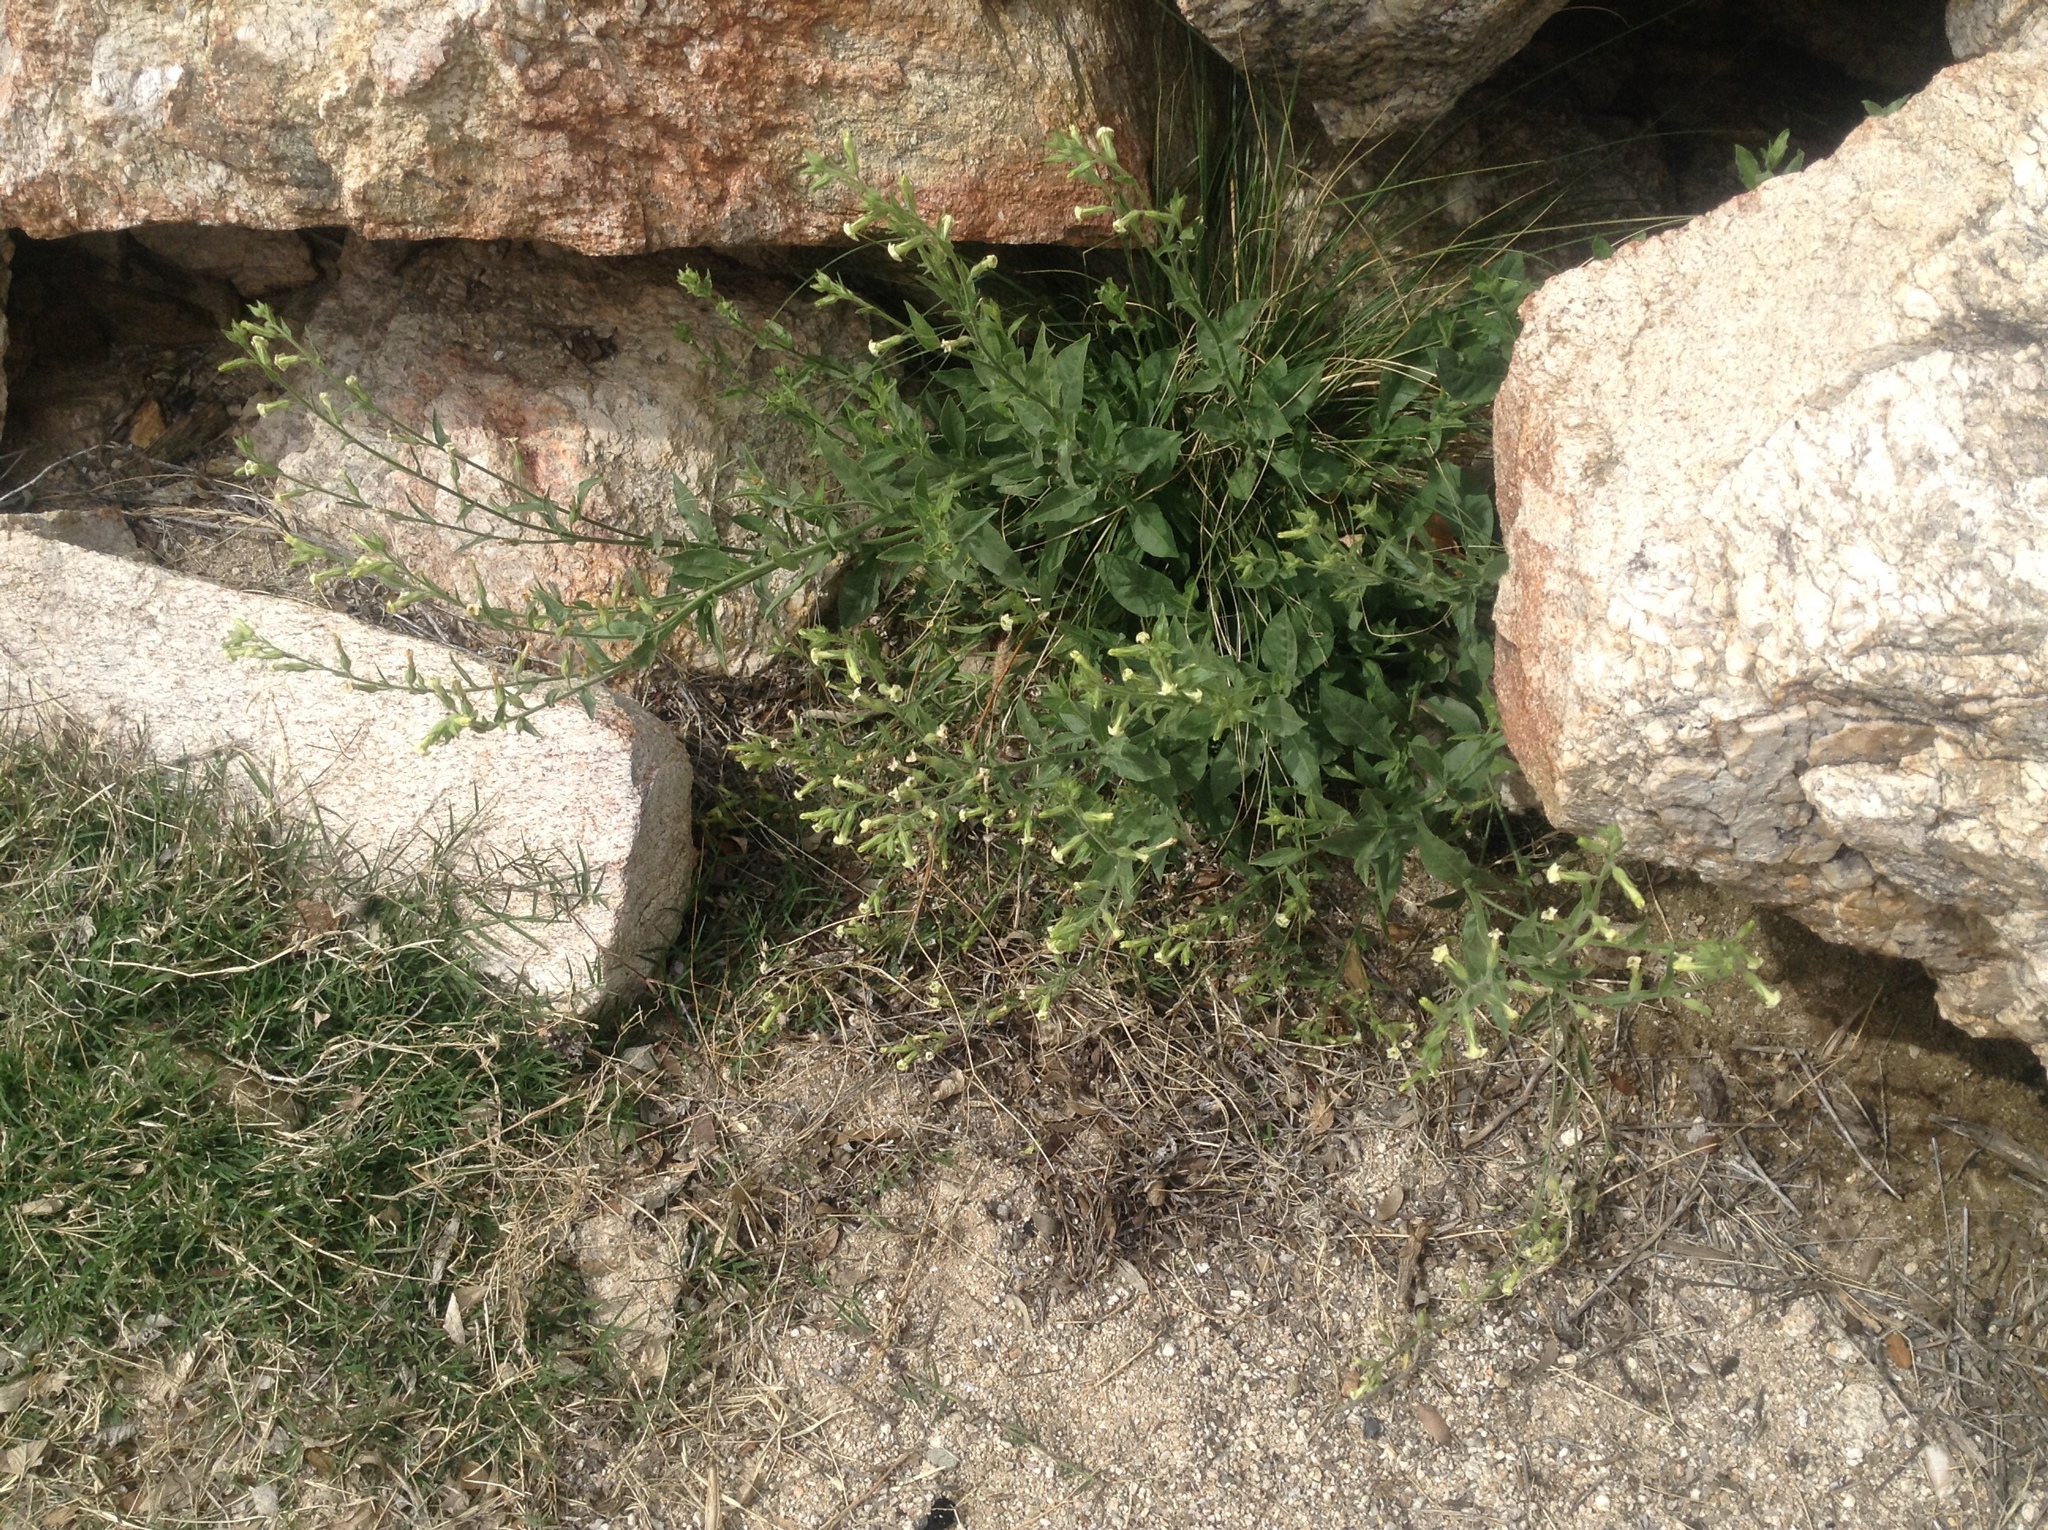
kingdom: Plantae
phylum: Tracheophyta
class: Magnoliopsida
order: Solanales
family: Solanaceae
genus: Nicotiana
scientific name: Nicotiana obtusifolia
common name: Desert tobacco
